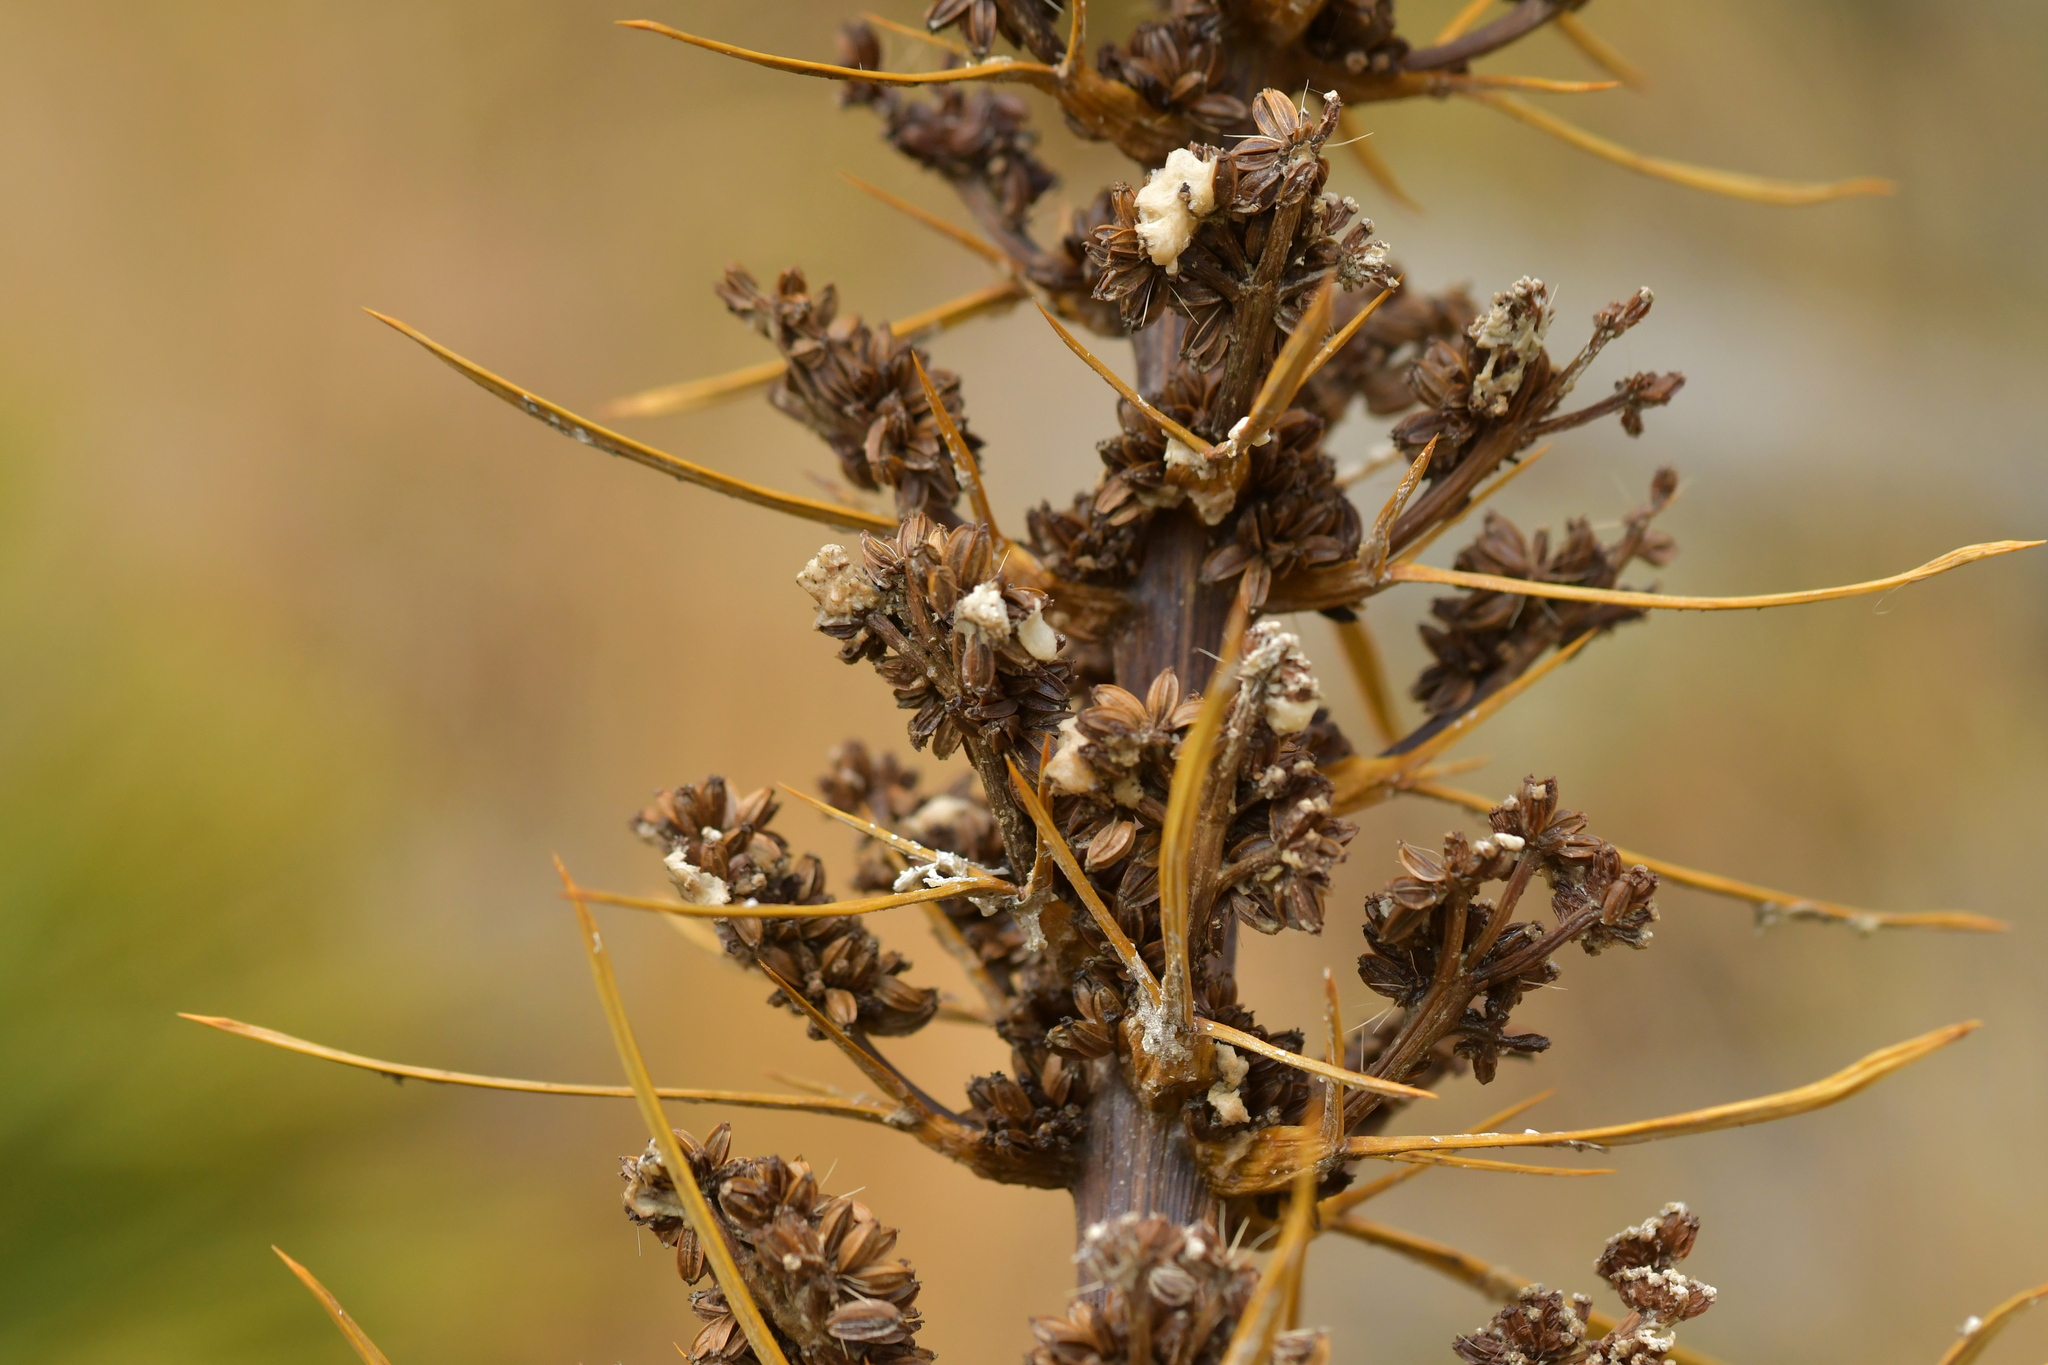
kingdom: Plantae
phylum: Tracheophyta
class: Magnoliopsida
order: Apiales
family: Apiaceae
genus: Aciphylla
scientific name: Aciphylla aurea
